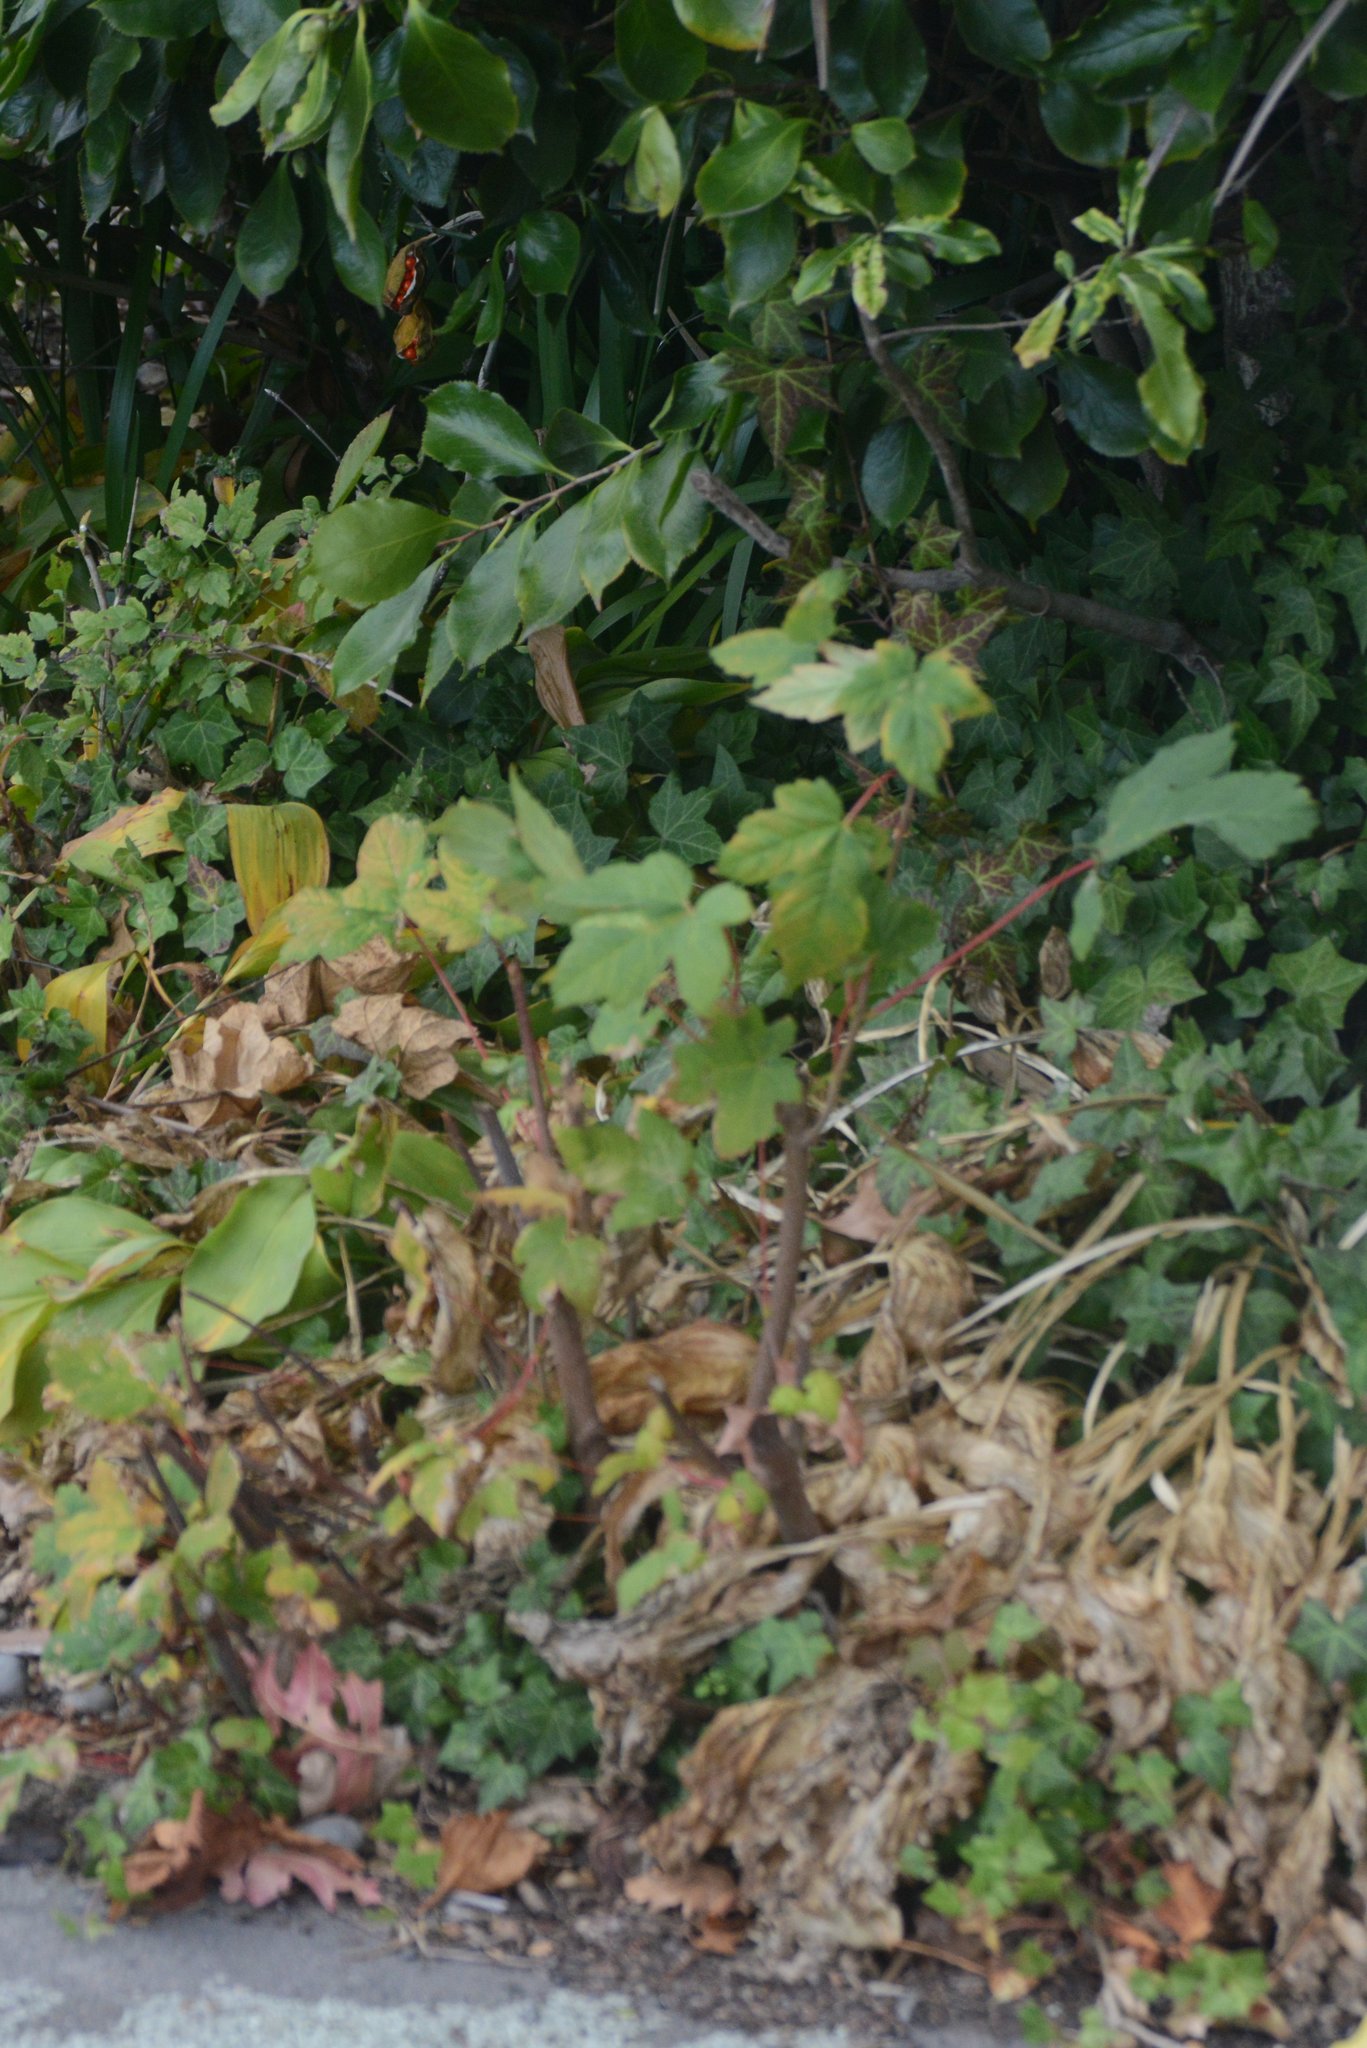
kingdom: Plantae
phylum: Tracheophyta
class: Magnoliopsida
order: Sapindales
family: Sapindaceae
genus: Acer
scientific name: Acer pseudoplatanus
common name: Sycamore
